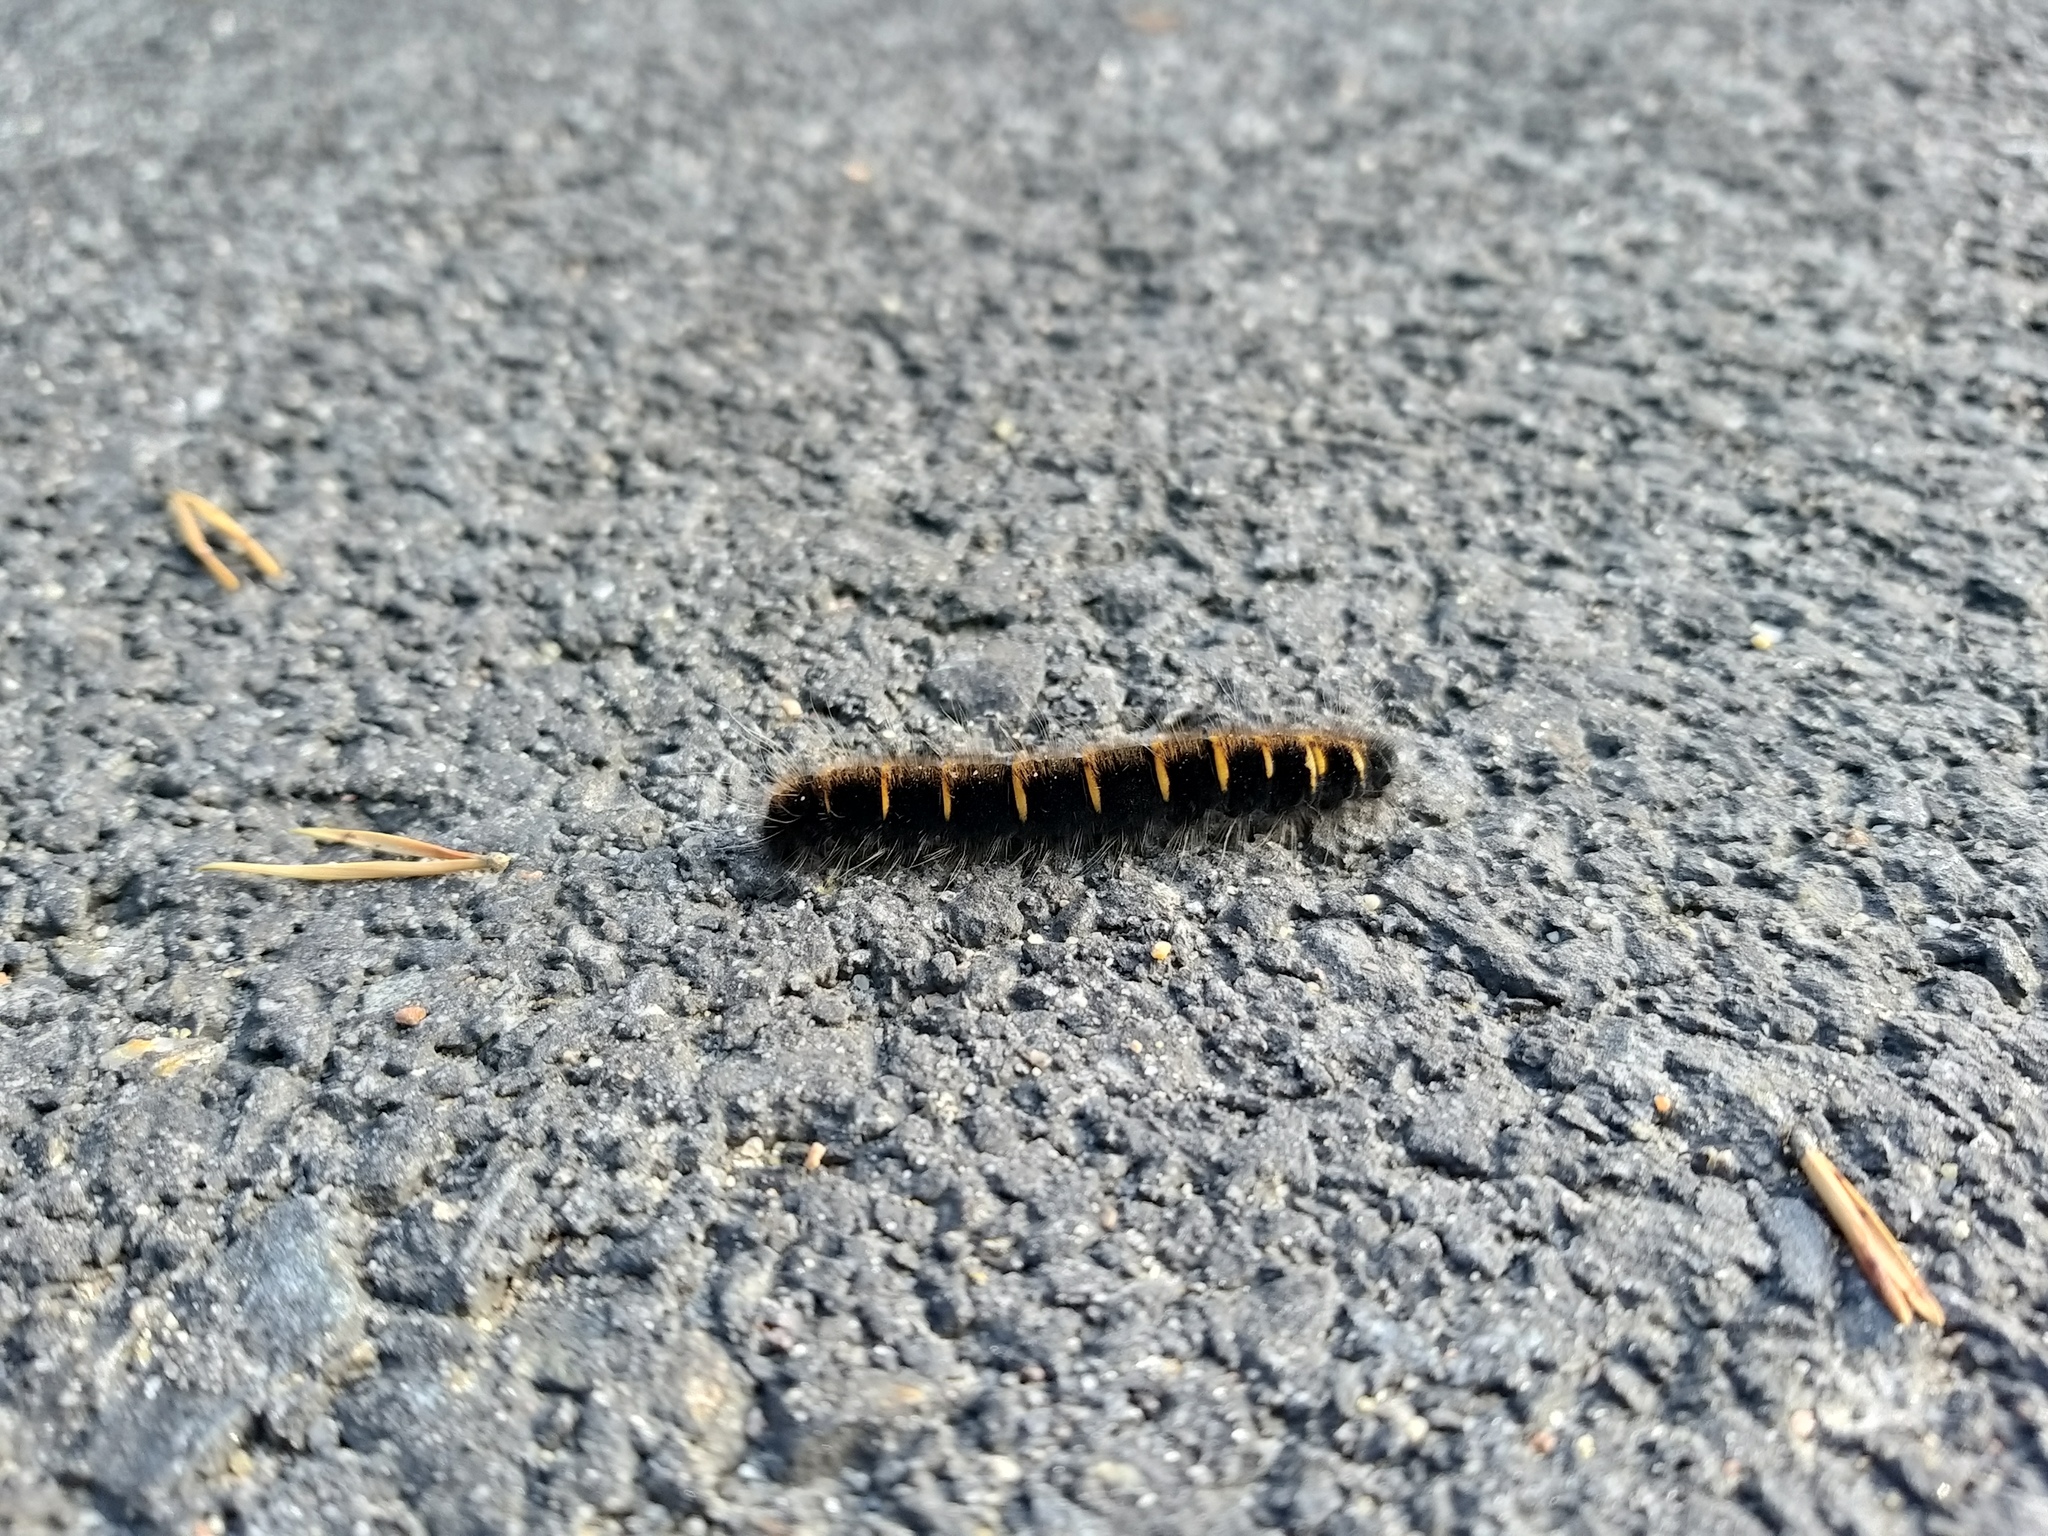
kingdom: Animalia
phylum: Arthropoda
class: Insecta
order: Lepidoptera
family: Lasiocampidae
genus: Macrothylacia
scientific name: Macrothylacia rubi
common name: Fox moth
